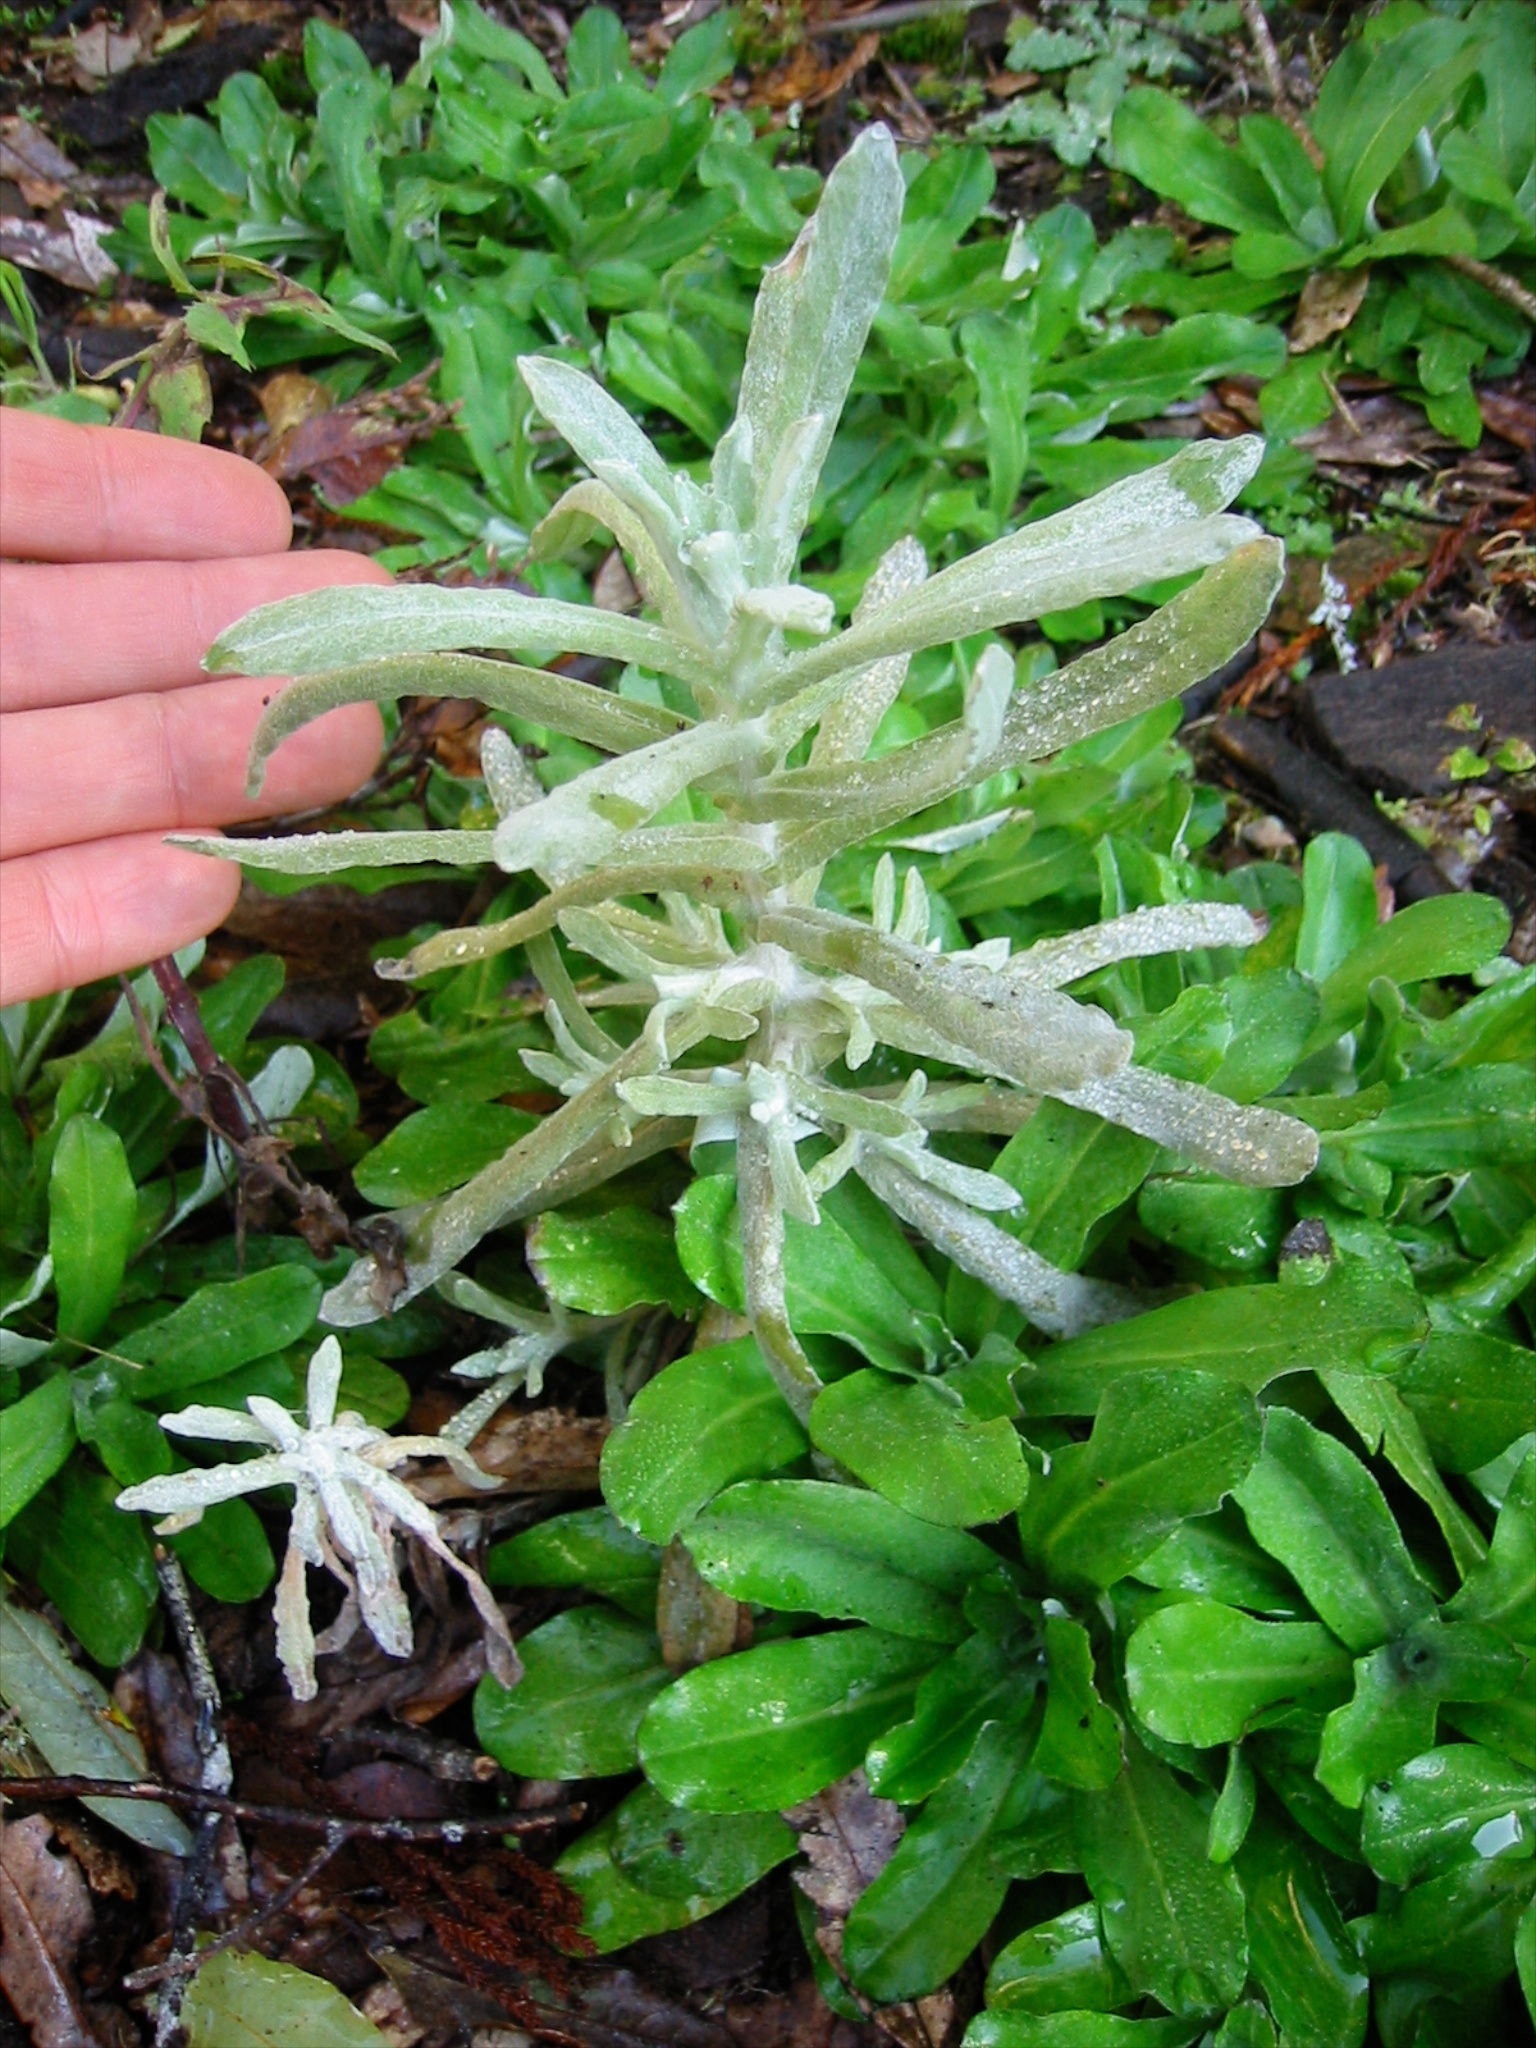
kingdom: Plantae
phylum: Tracheophyta
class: Magnoliopsida
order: Asterales
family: Asteraceae
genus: Helichrysum
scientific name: Helichrysum luteoalbum
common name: Daisy
